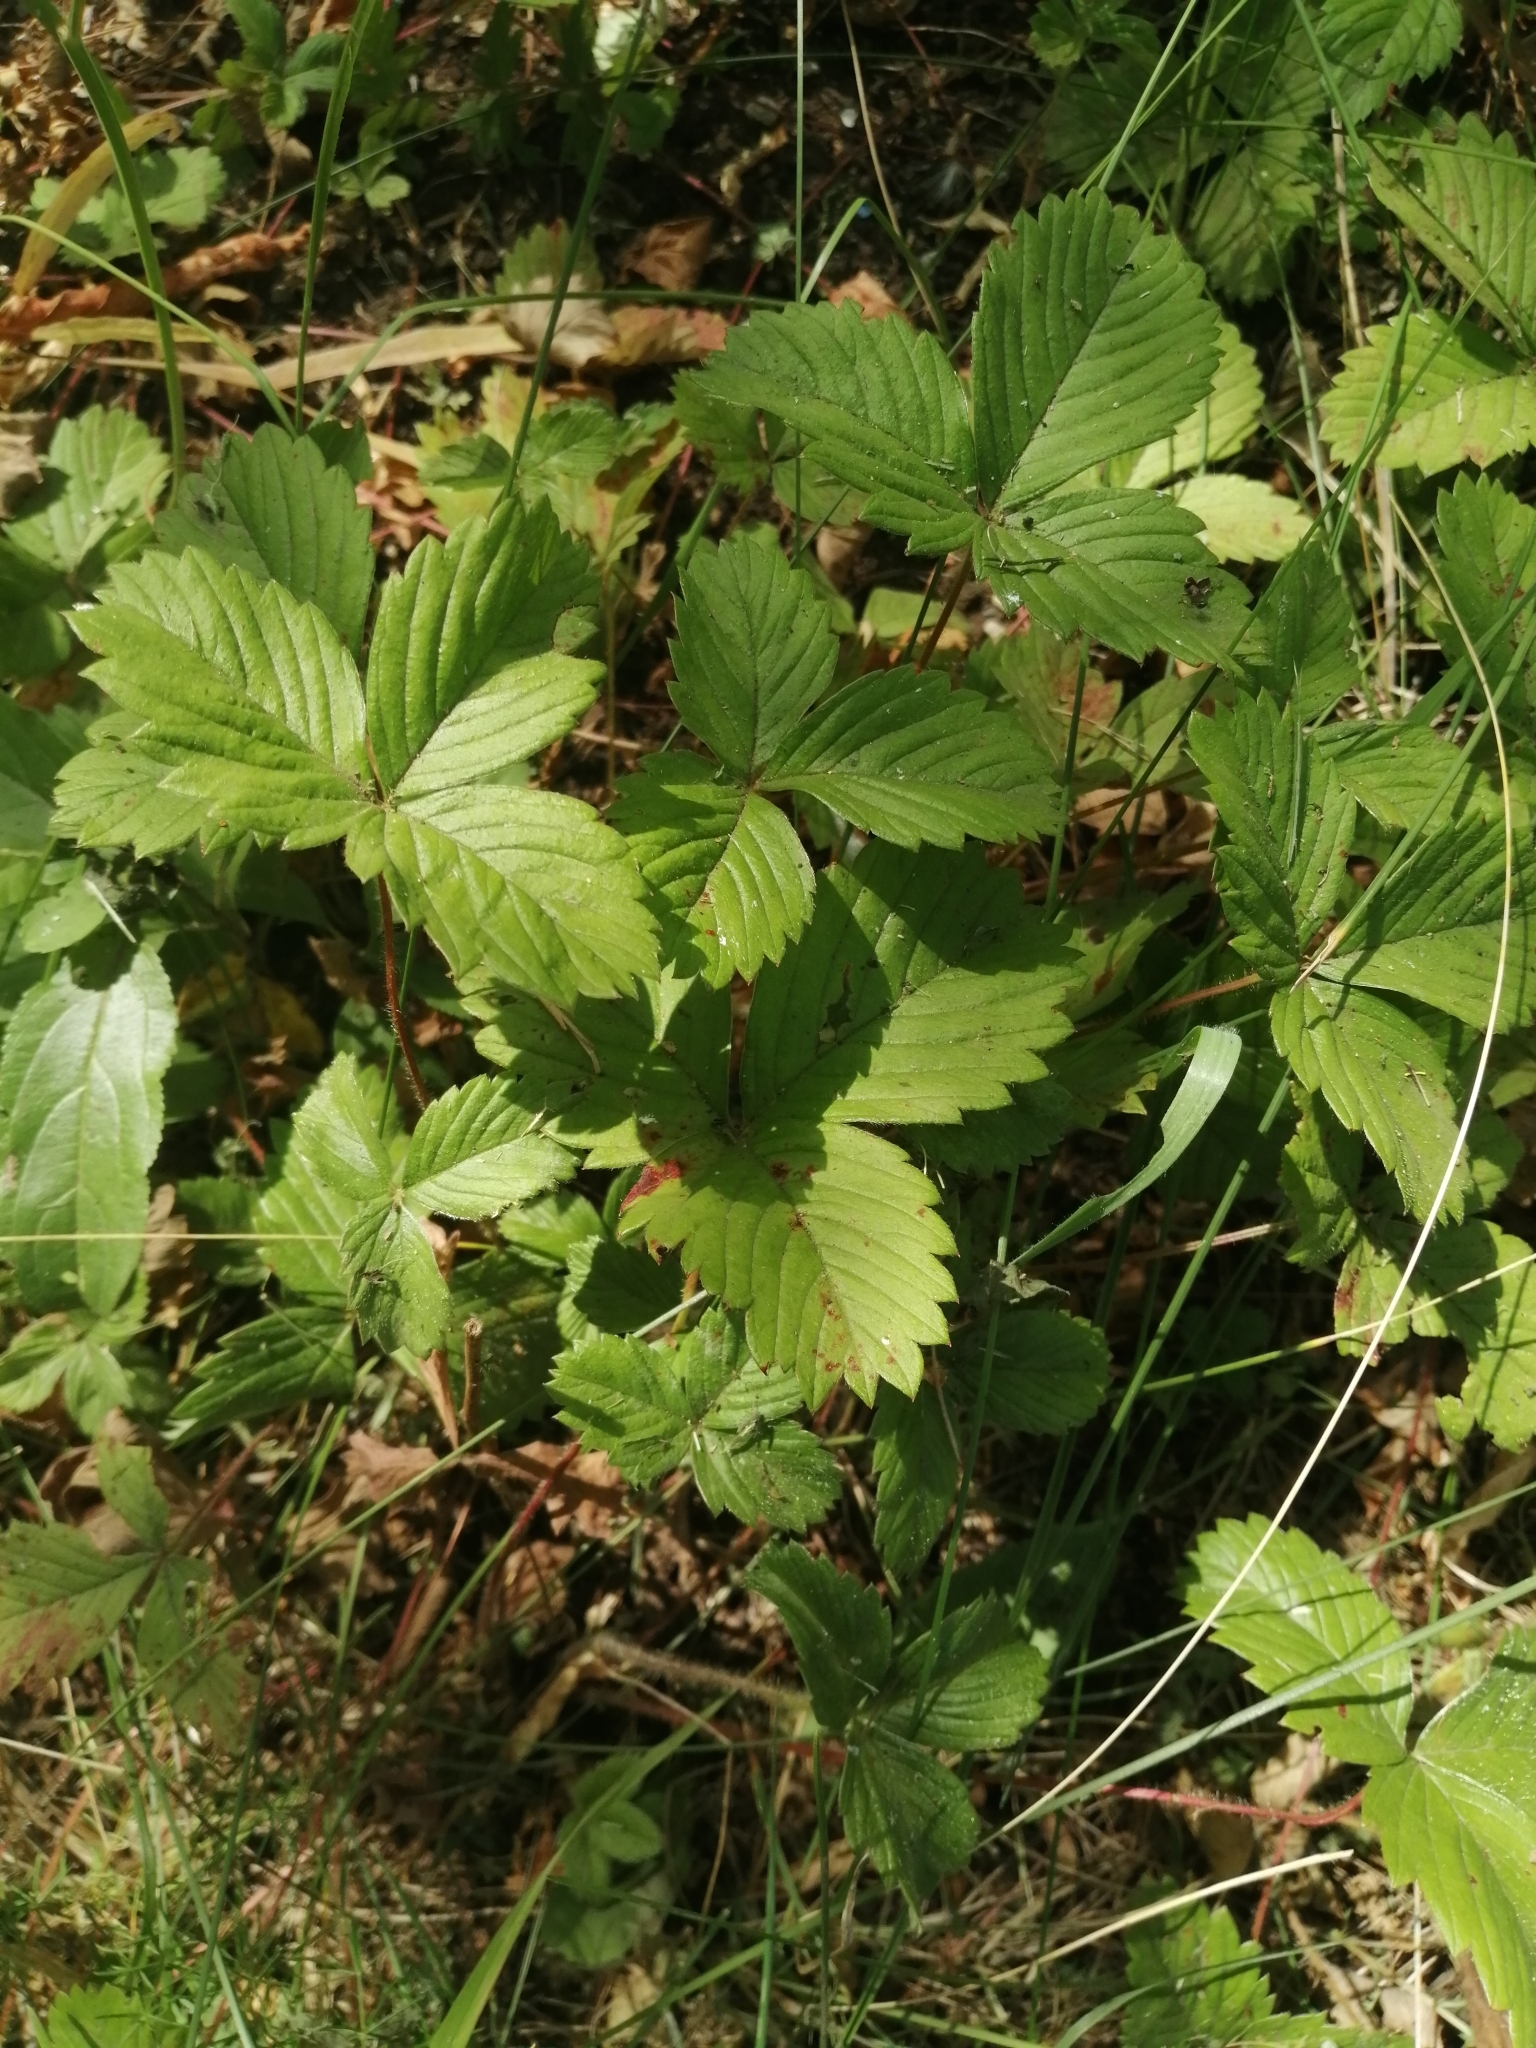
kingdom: Plantae
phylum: Tracheophyta
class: Magnoliopsida
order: Rosales
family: Rosaceae
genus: Fragaria
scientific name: Fragaria vesca
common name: Wild strawberry
